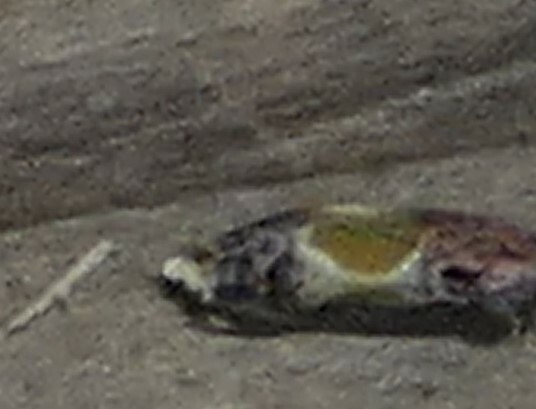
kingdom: Animalia
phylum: Arthropoda
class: Insecta
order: Lepidoptera
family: Tortricidae
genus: Eumarozia
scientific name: Eumarozia malachitana
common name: Sculptured moth
